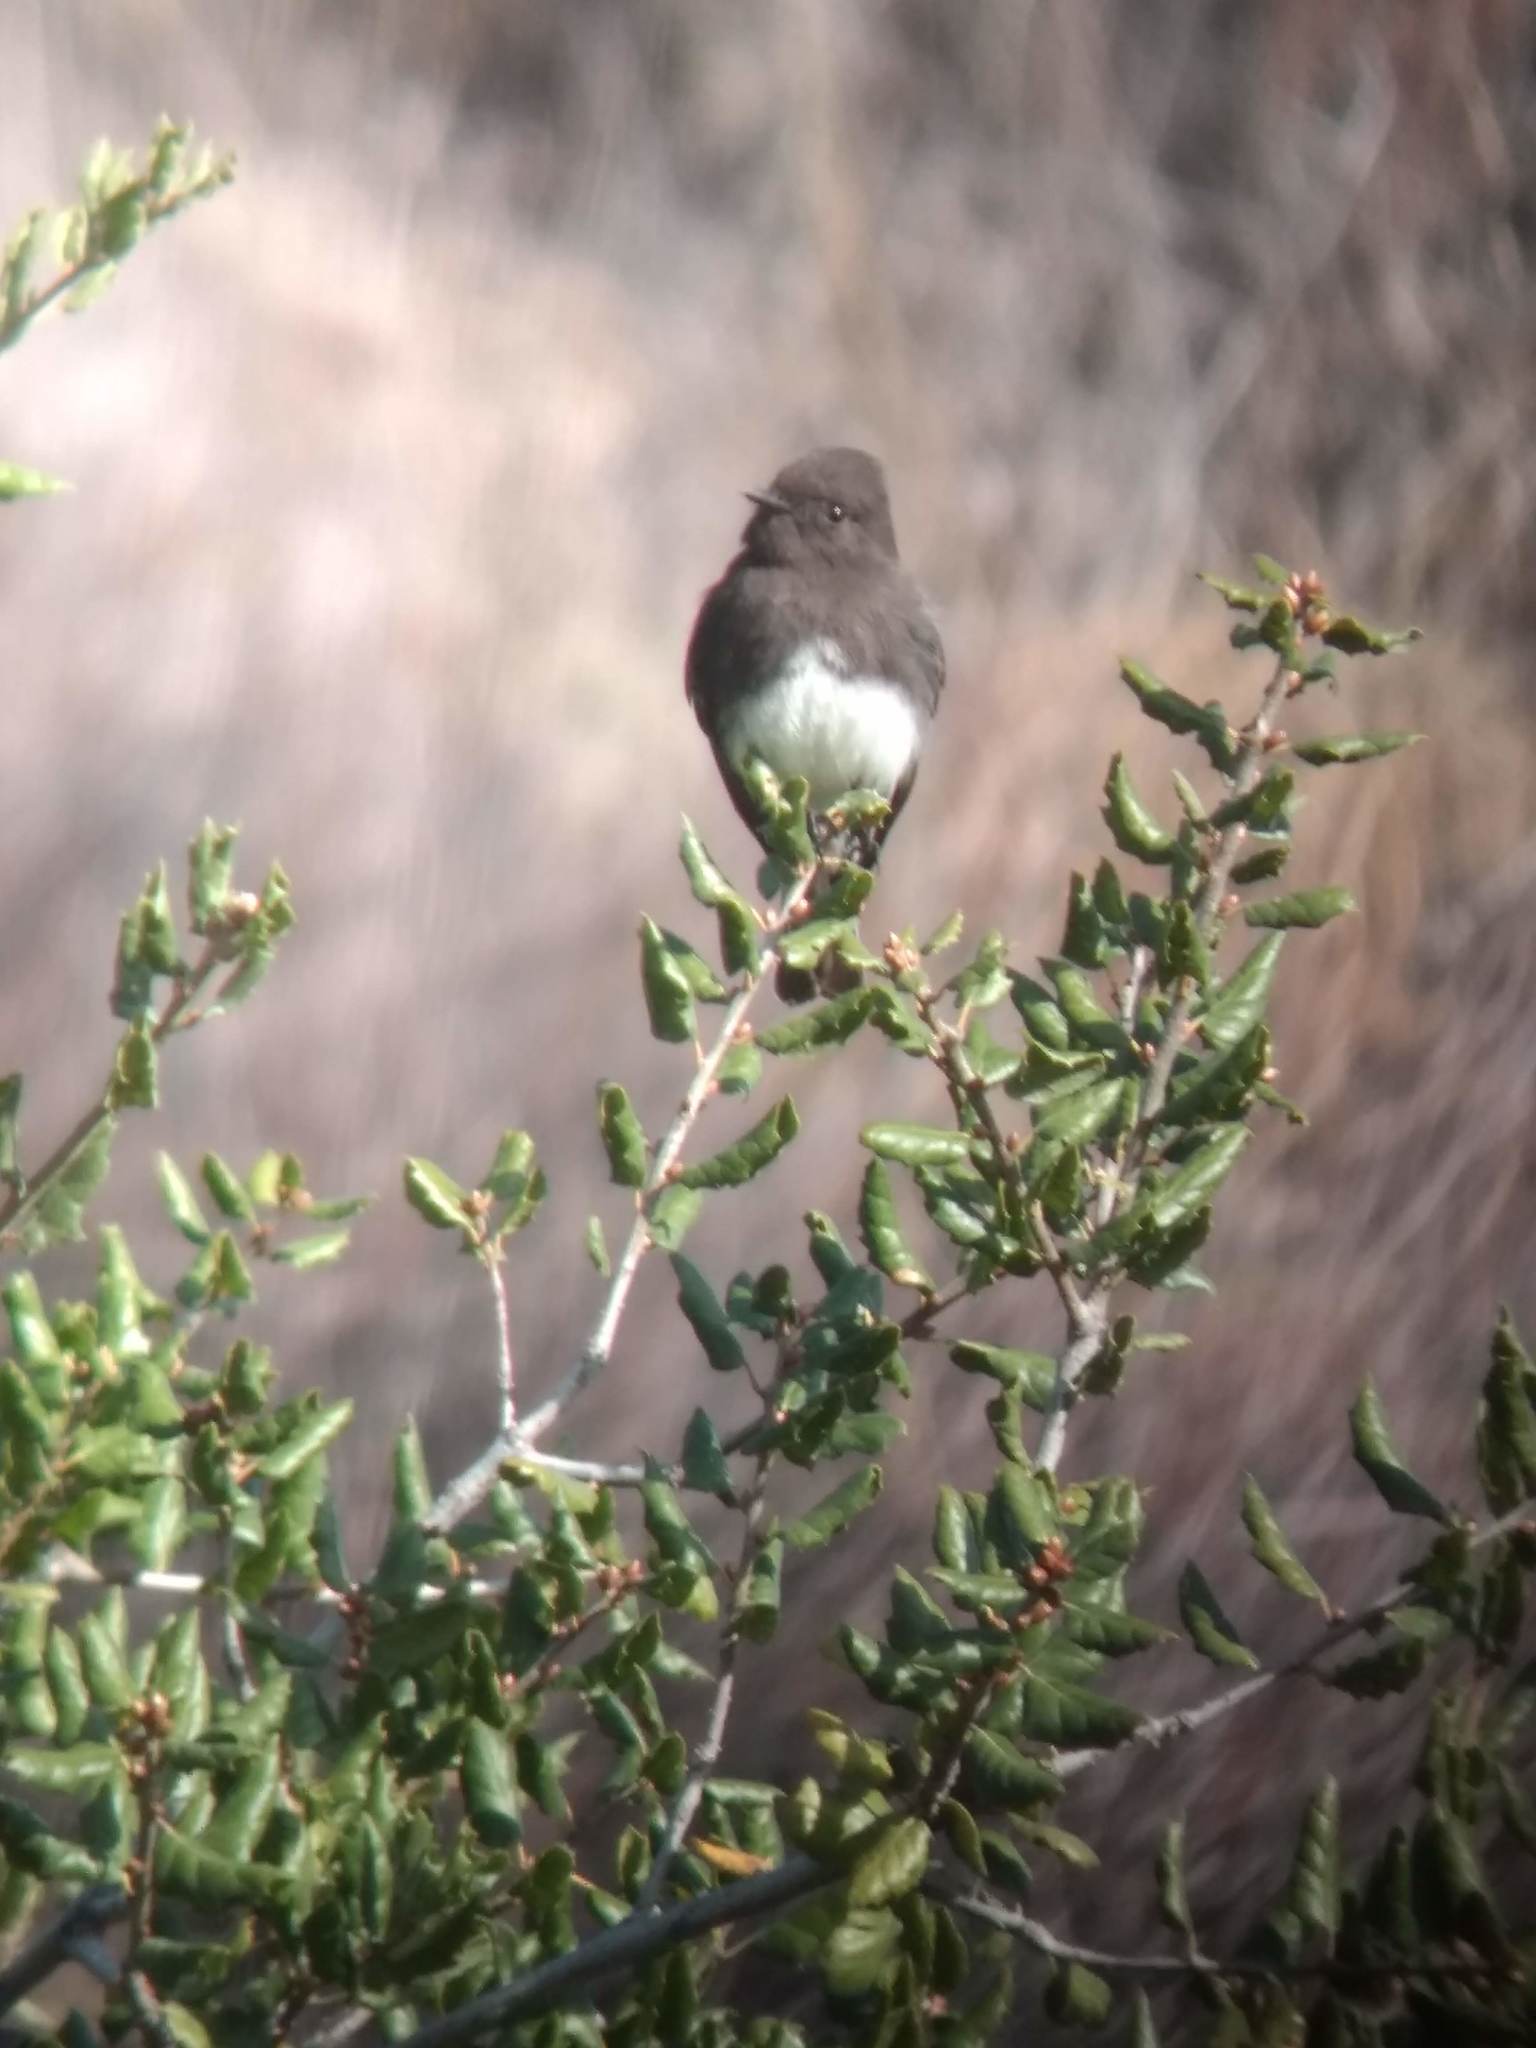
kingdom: Animalia
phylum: Chordata
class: Aves
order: Passeriformes
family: Tyrannidae
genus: Sayornis
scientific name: Sayornis nigricans
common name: Black phoebe
